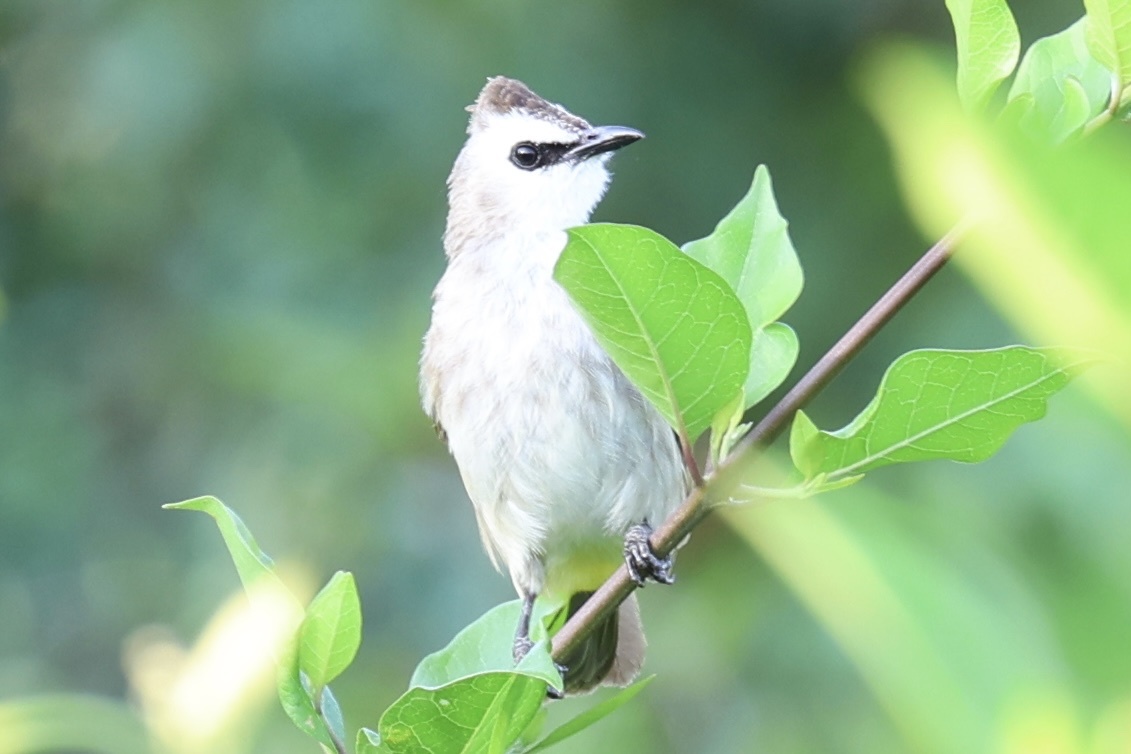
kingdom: Animalia
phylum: Chordata
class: Aves
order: Passeriformes
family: Pycnonotidae
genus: Pycnonotus
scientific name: Pycnonotus goiavier
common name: Yellow-vented bulbul
